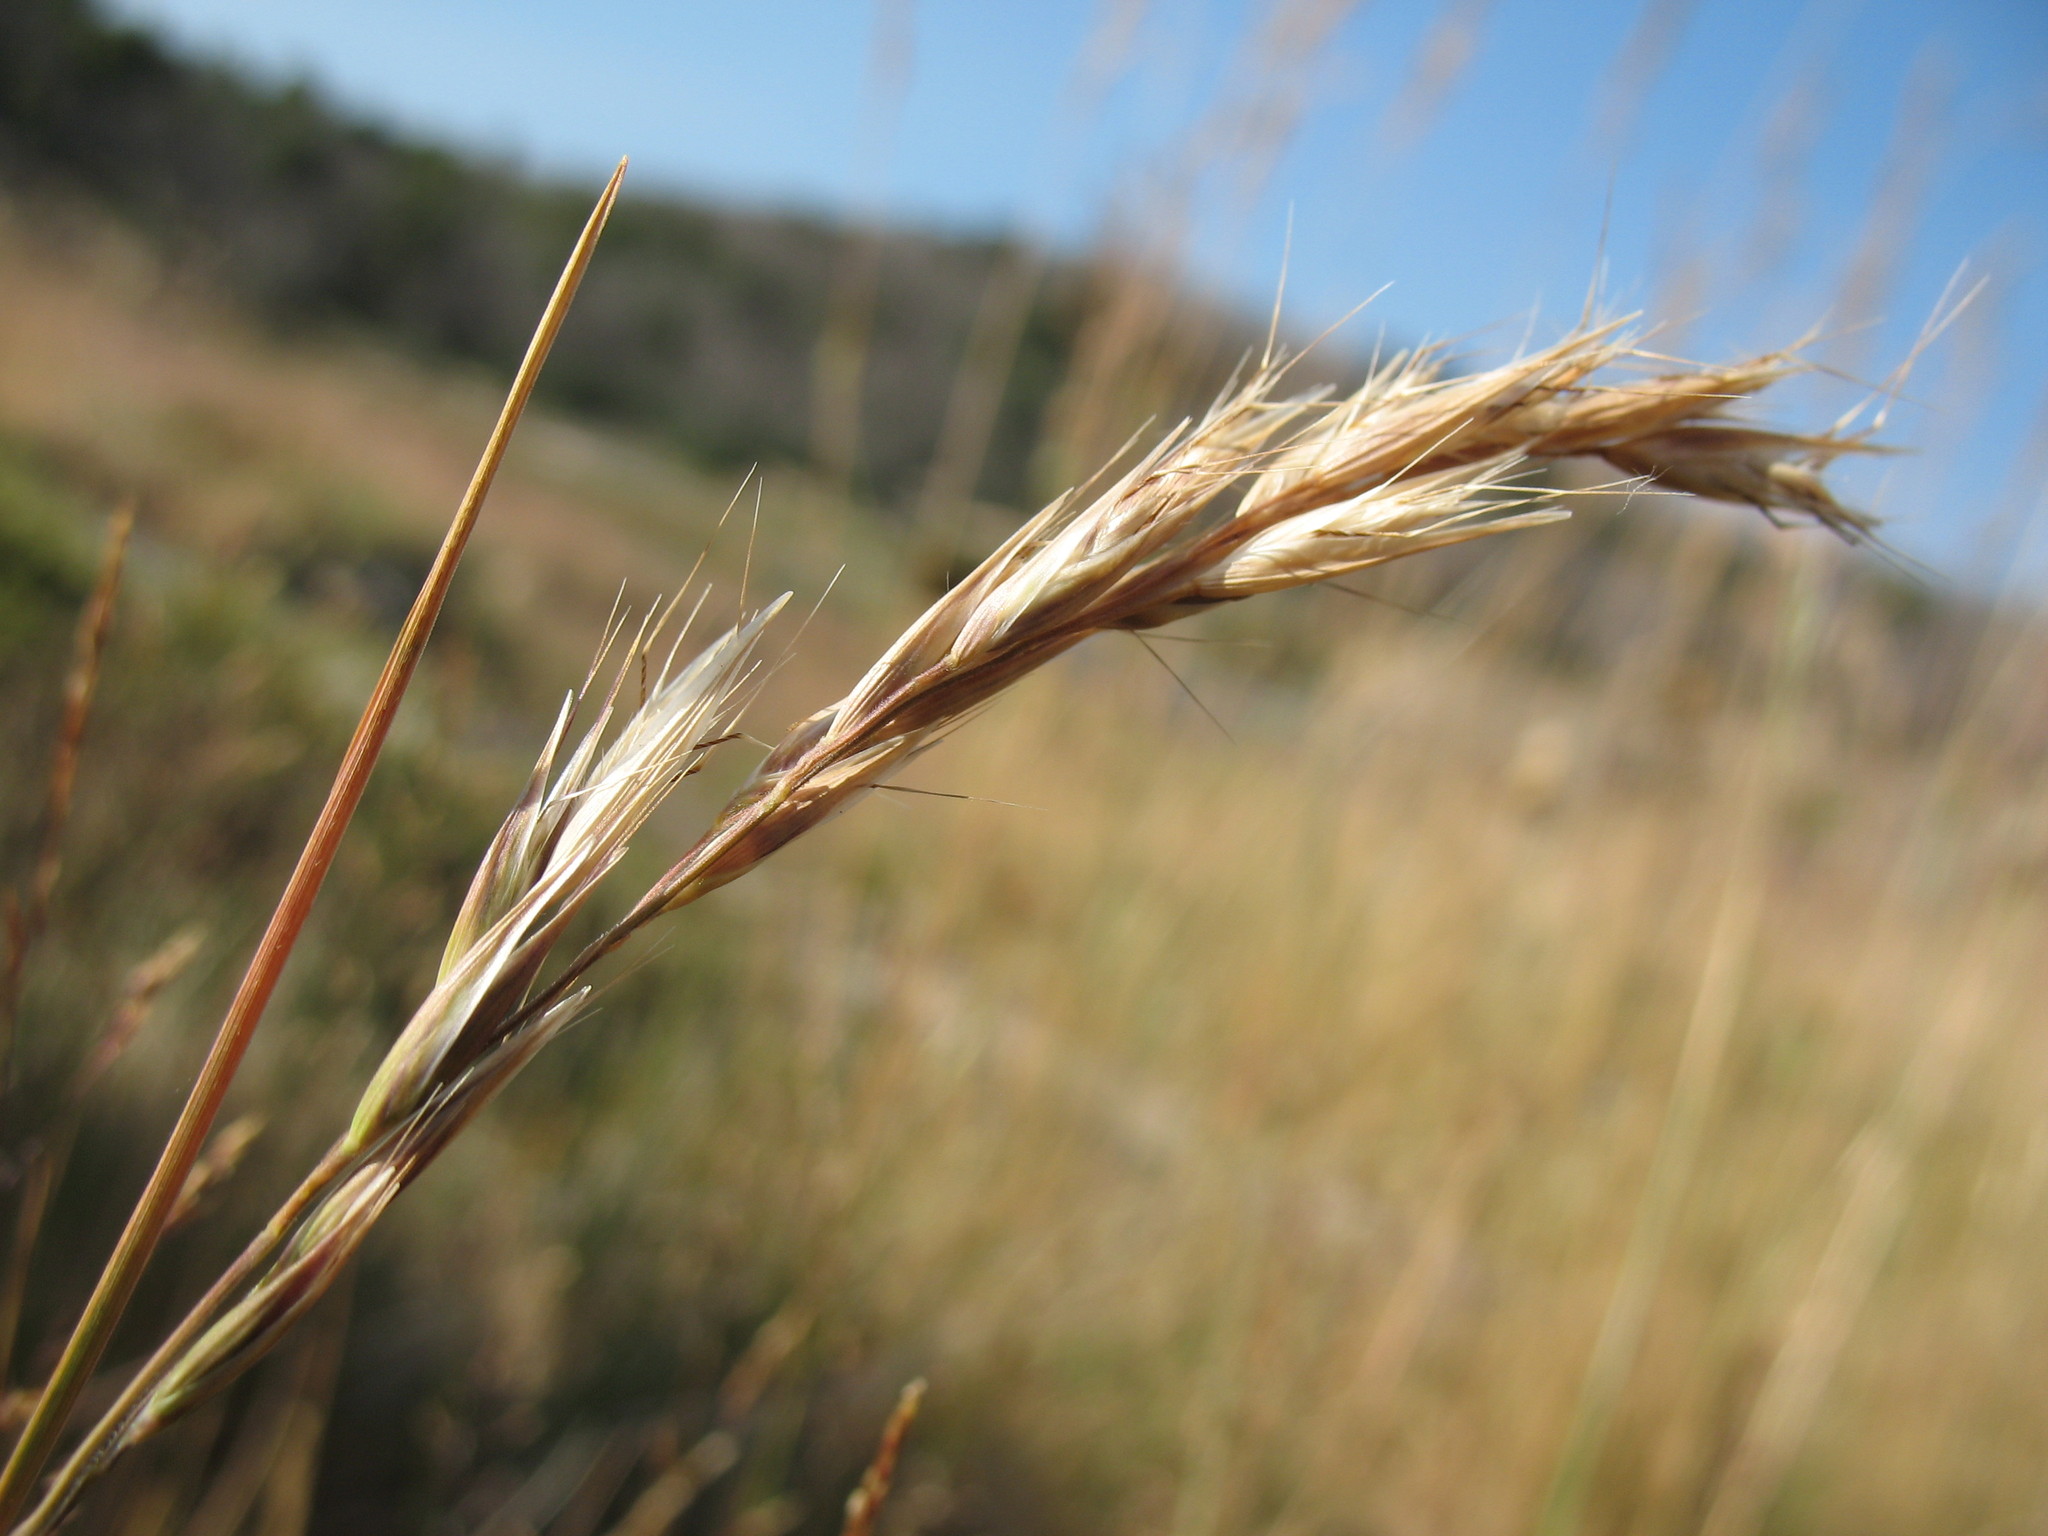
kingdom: Plantae
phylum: Tracheophyta
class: Liliopsida
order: Poales
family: Poaceae
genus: Rytidosperma
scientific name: Rytidosperma penicillatum
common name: Hairy wallaby grass
